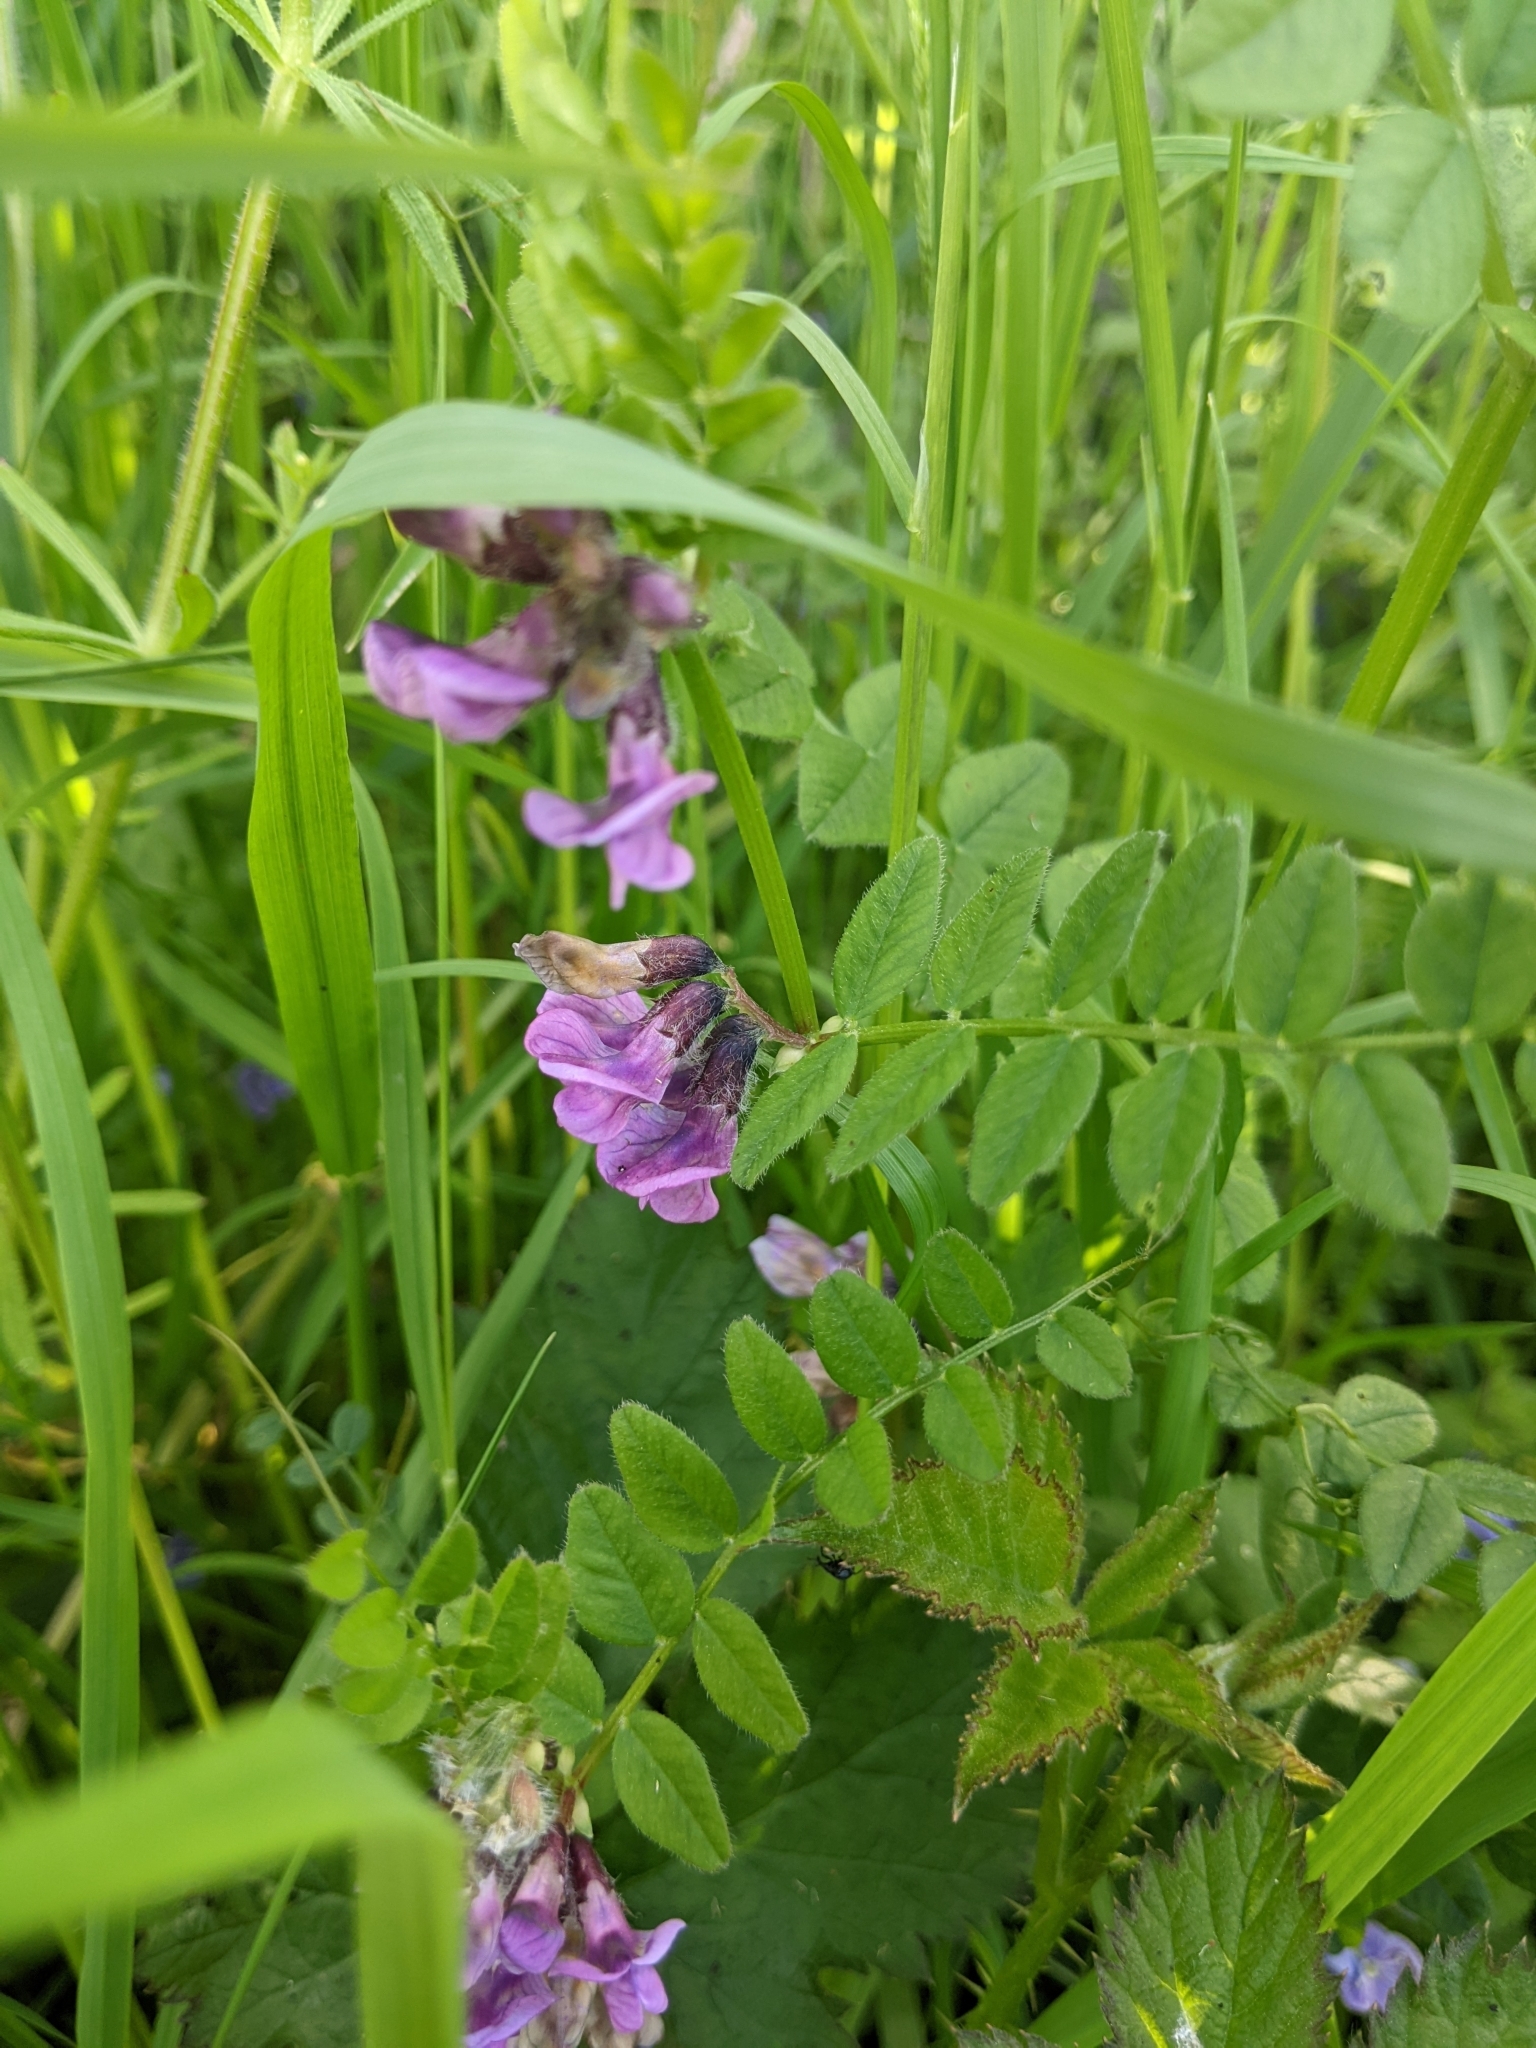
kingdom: Plantae
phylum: Tracheophyta
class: Magnoliopsida
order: Fabales
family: Fabaceae
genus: Vicia
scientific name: Vicia sepium
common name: Bush vetch
